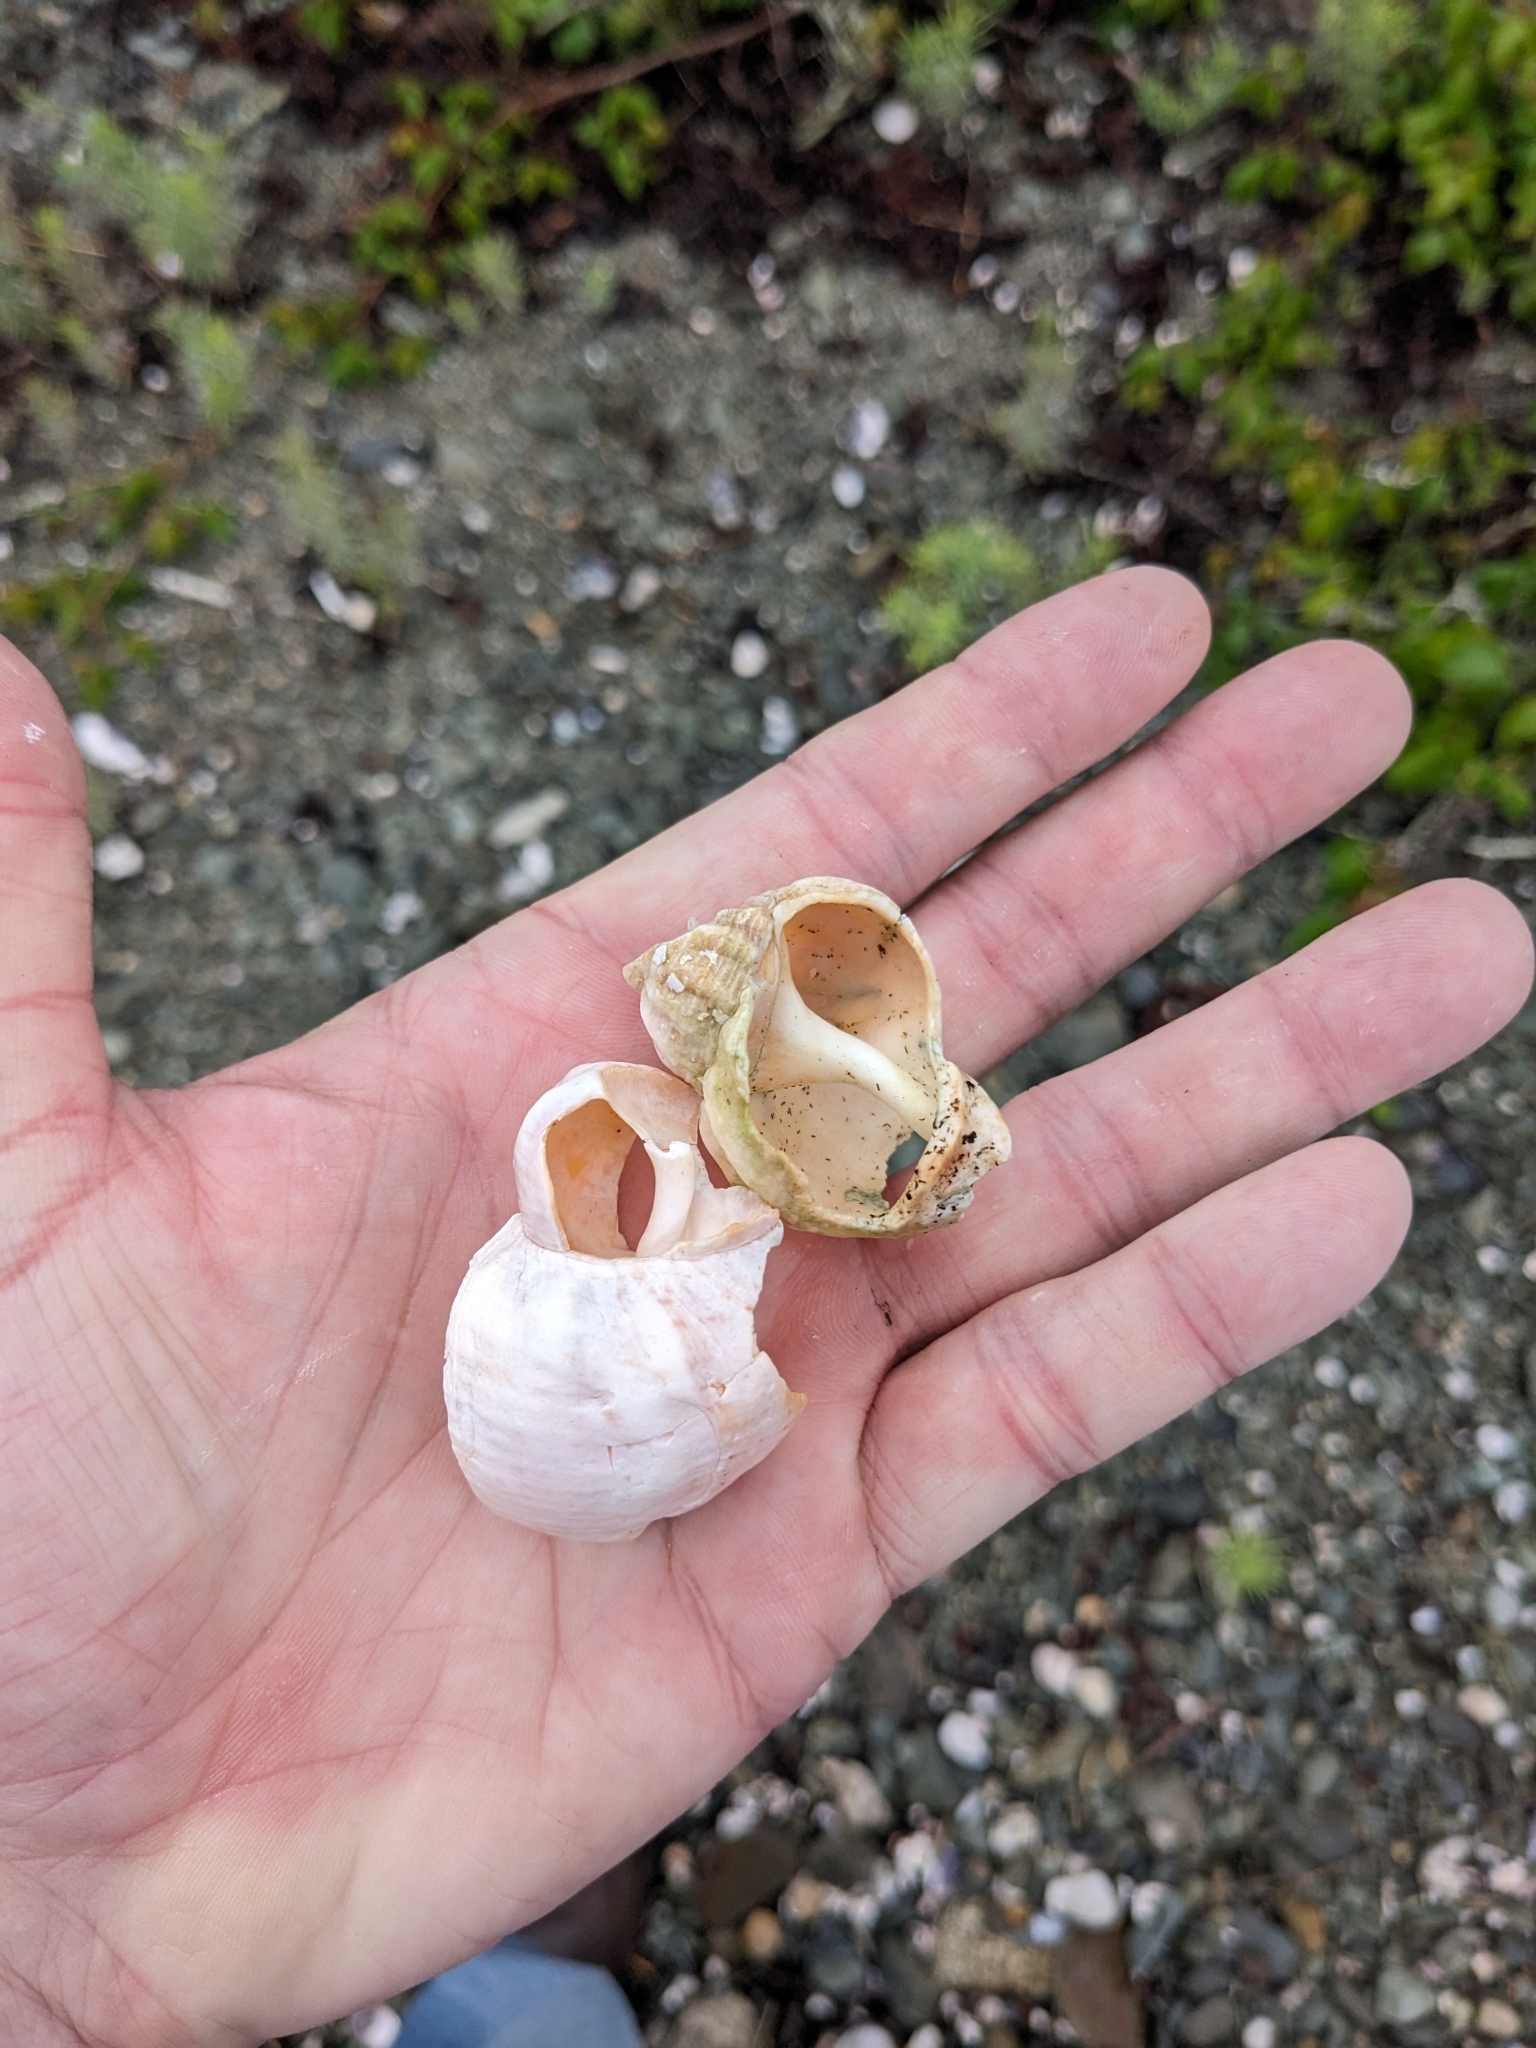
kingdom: Animalia
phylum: Mollusca
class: Gastropoda
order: Neogastropoda
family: Buccinidae
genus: Buccinum
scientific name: Buccinum undatum
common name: Common whelk
